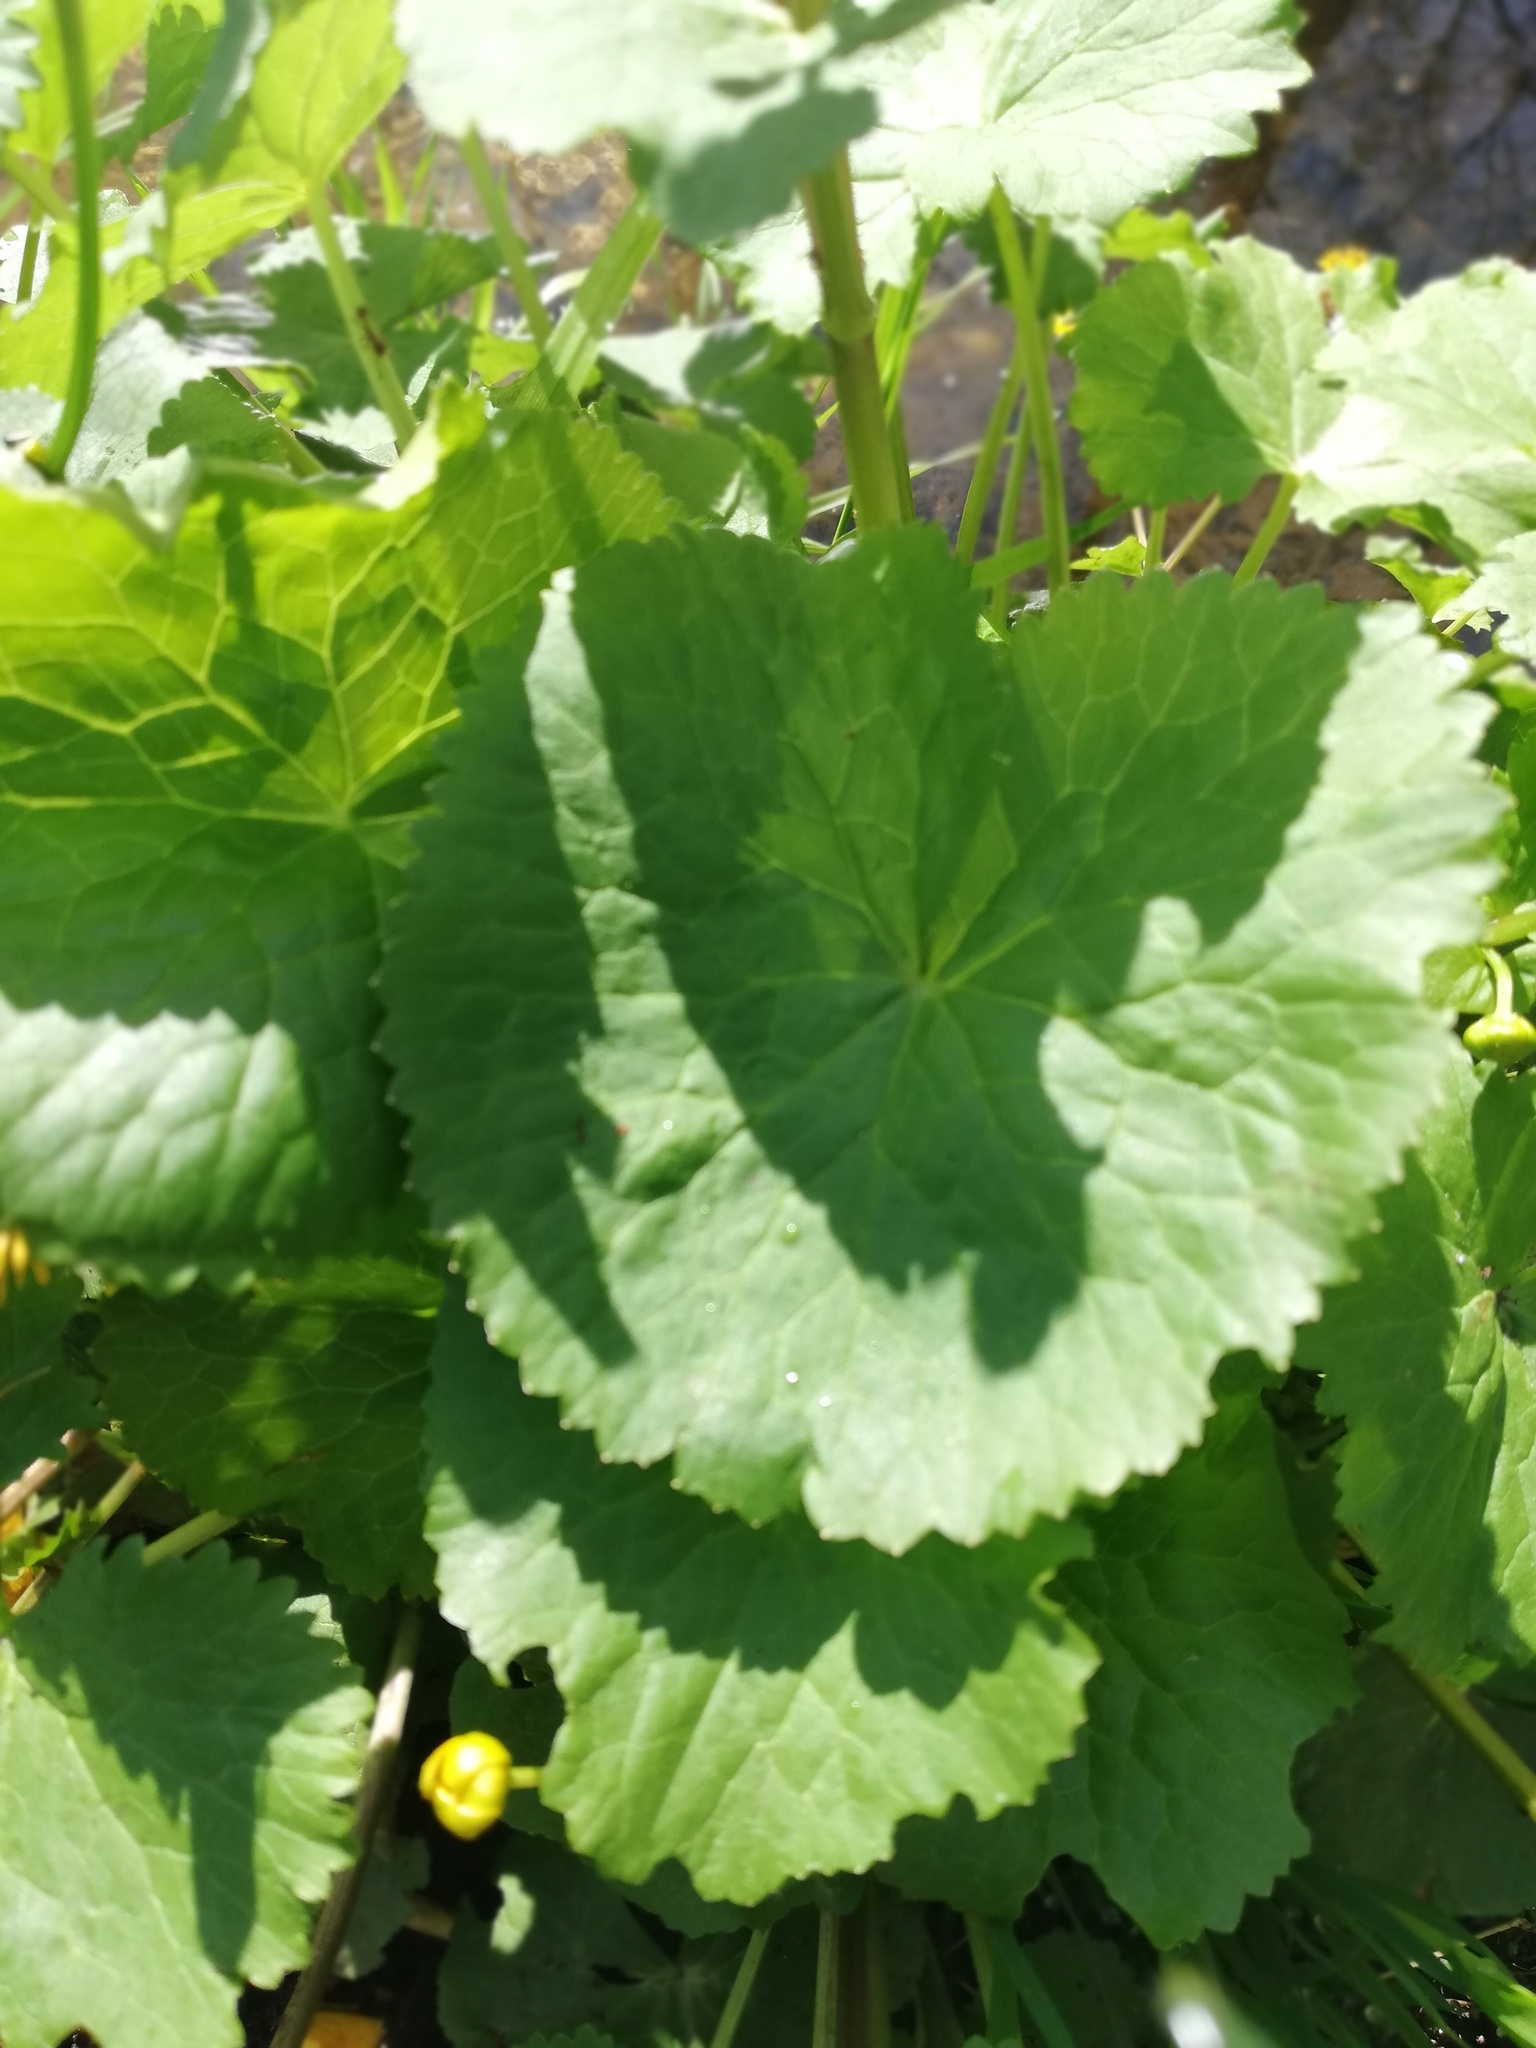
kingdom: Plantae
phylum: Tracheophyta
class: Magnoliopsida
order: Ranunculales
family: Ranunculaceae
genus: Caltha
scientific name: Caltha palustris
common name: Marsh marigold
